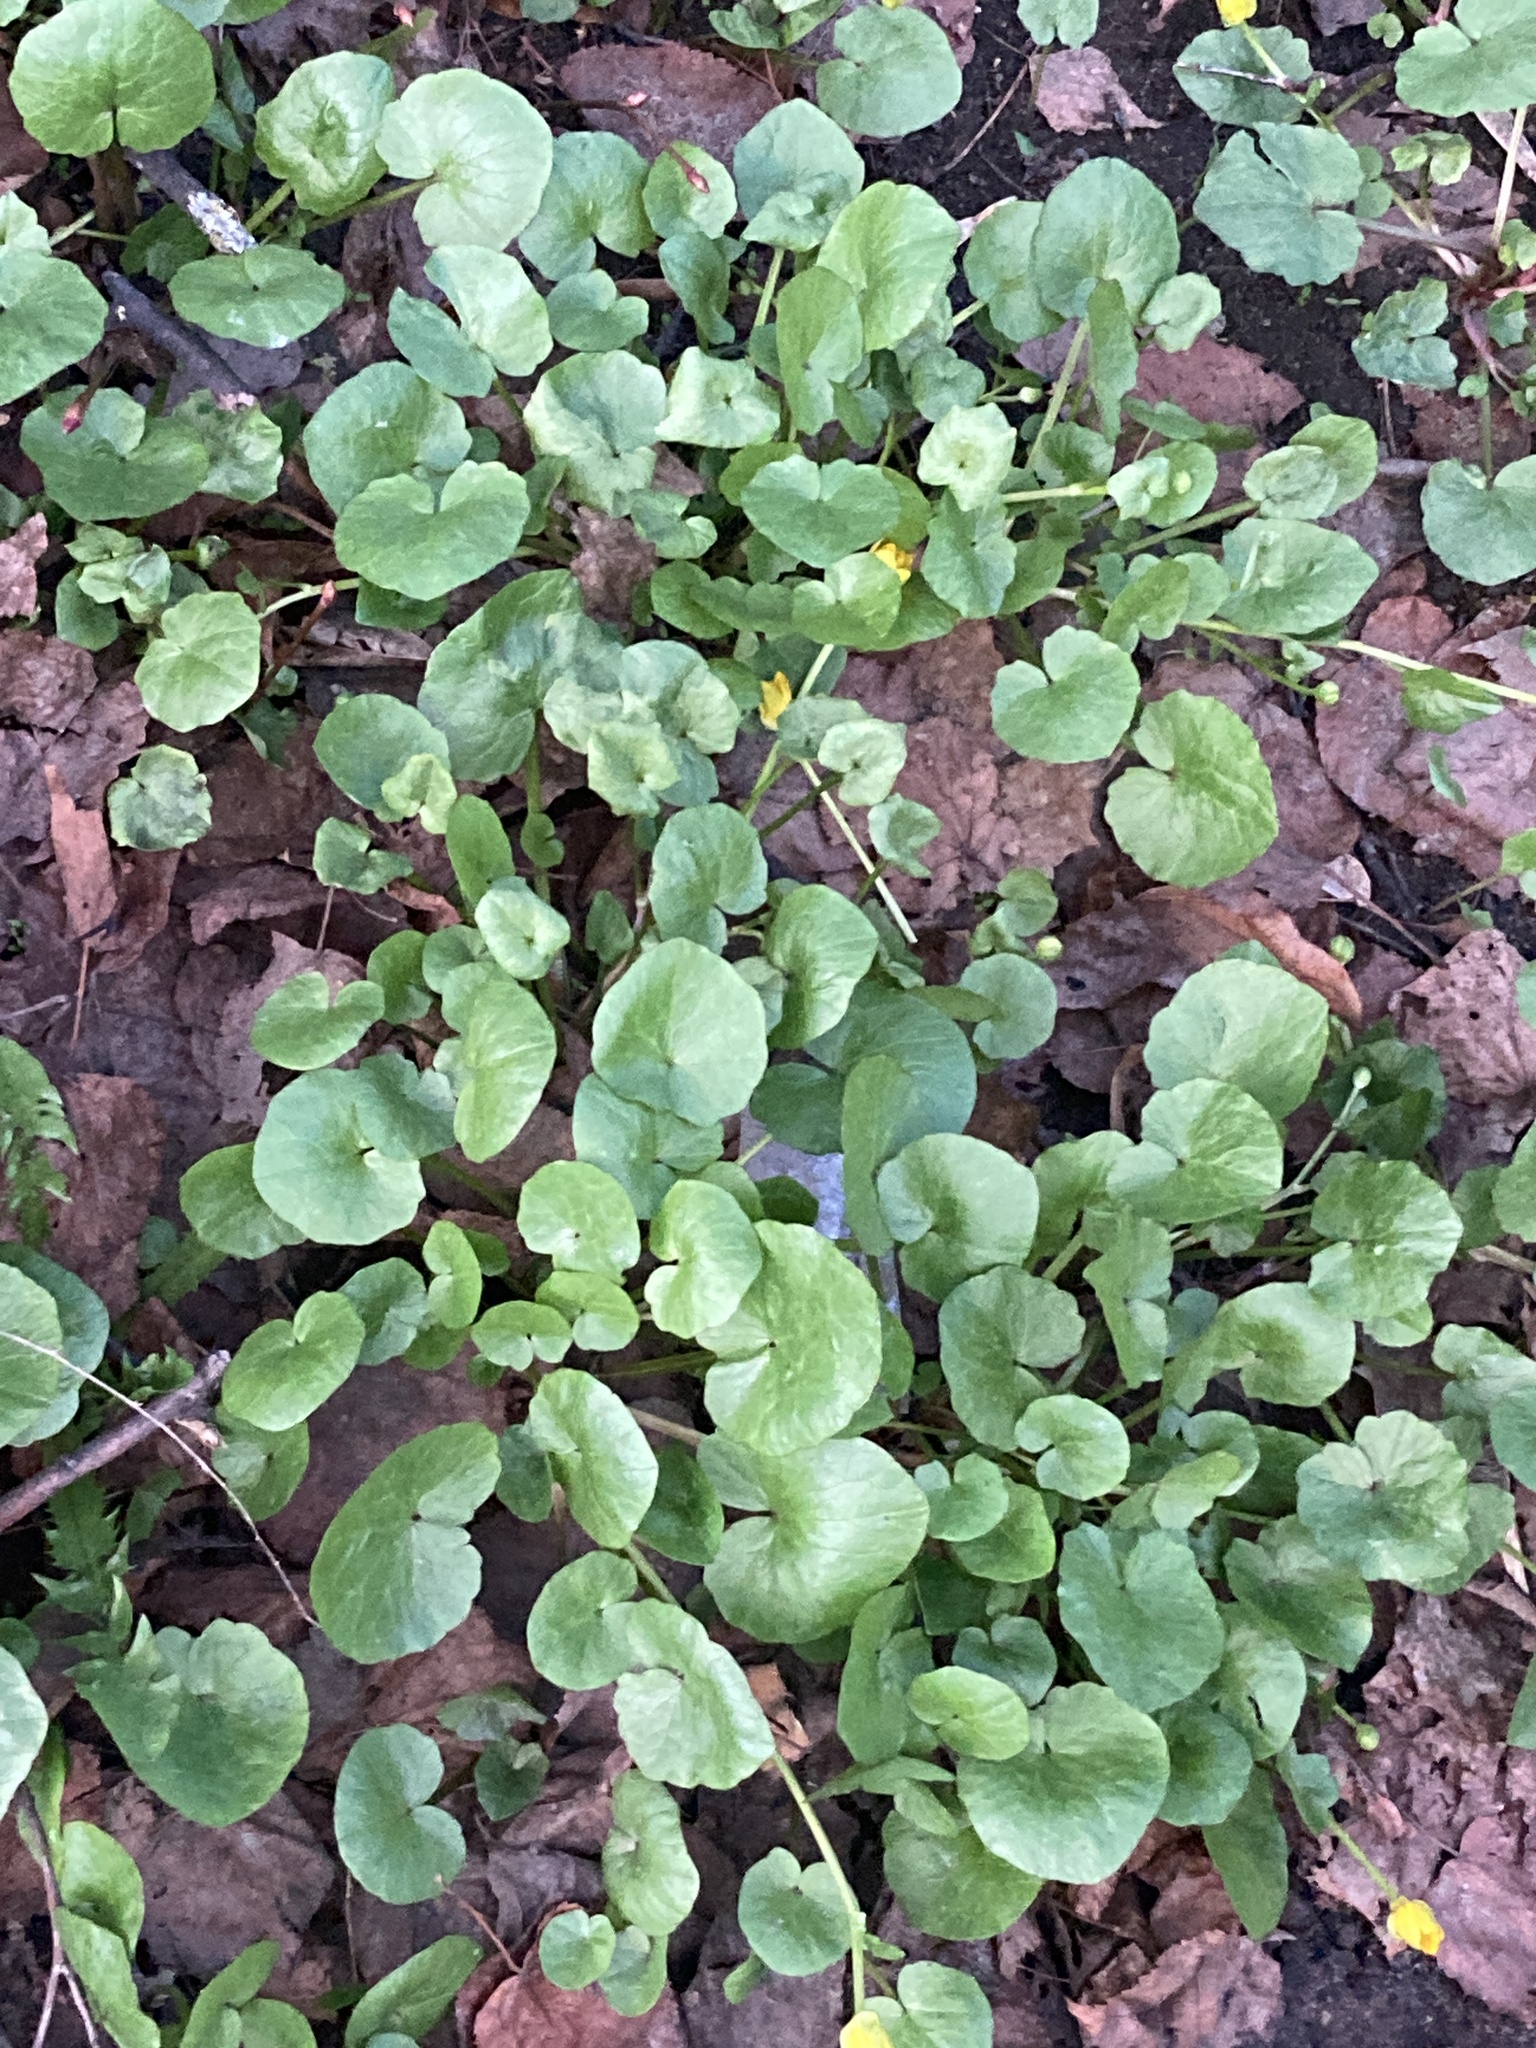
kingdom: Plantae
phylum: Tracheophyta
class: Magnoliopsida
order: Ranunculales
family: Ranunculaceae
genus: Ficaria
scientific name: Ficaria verna
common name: Lesser celandine
